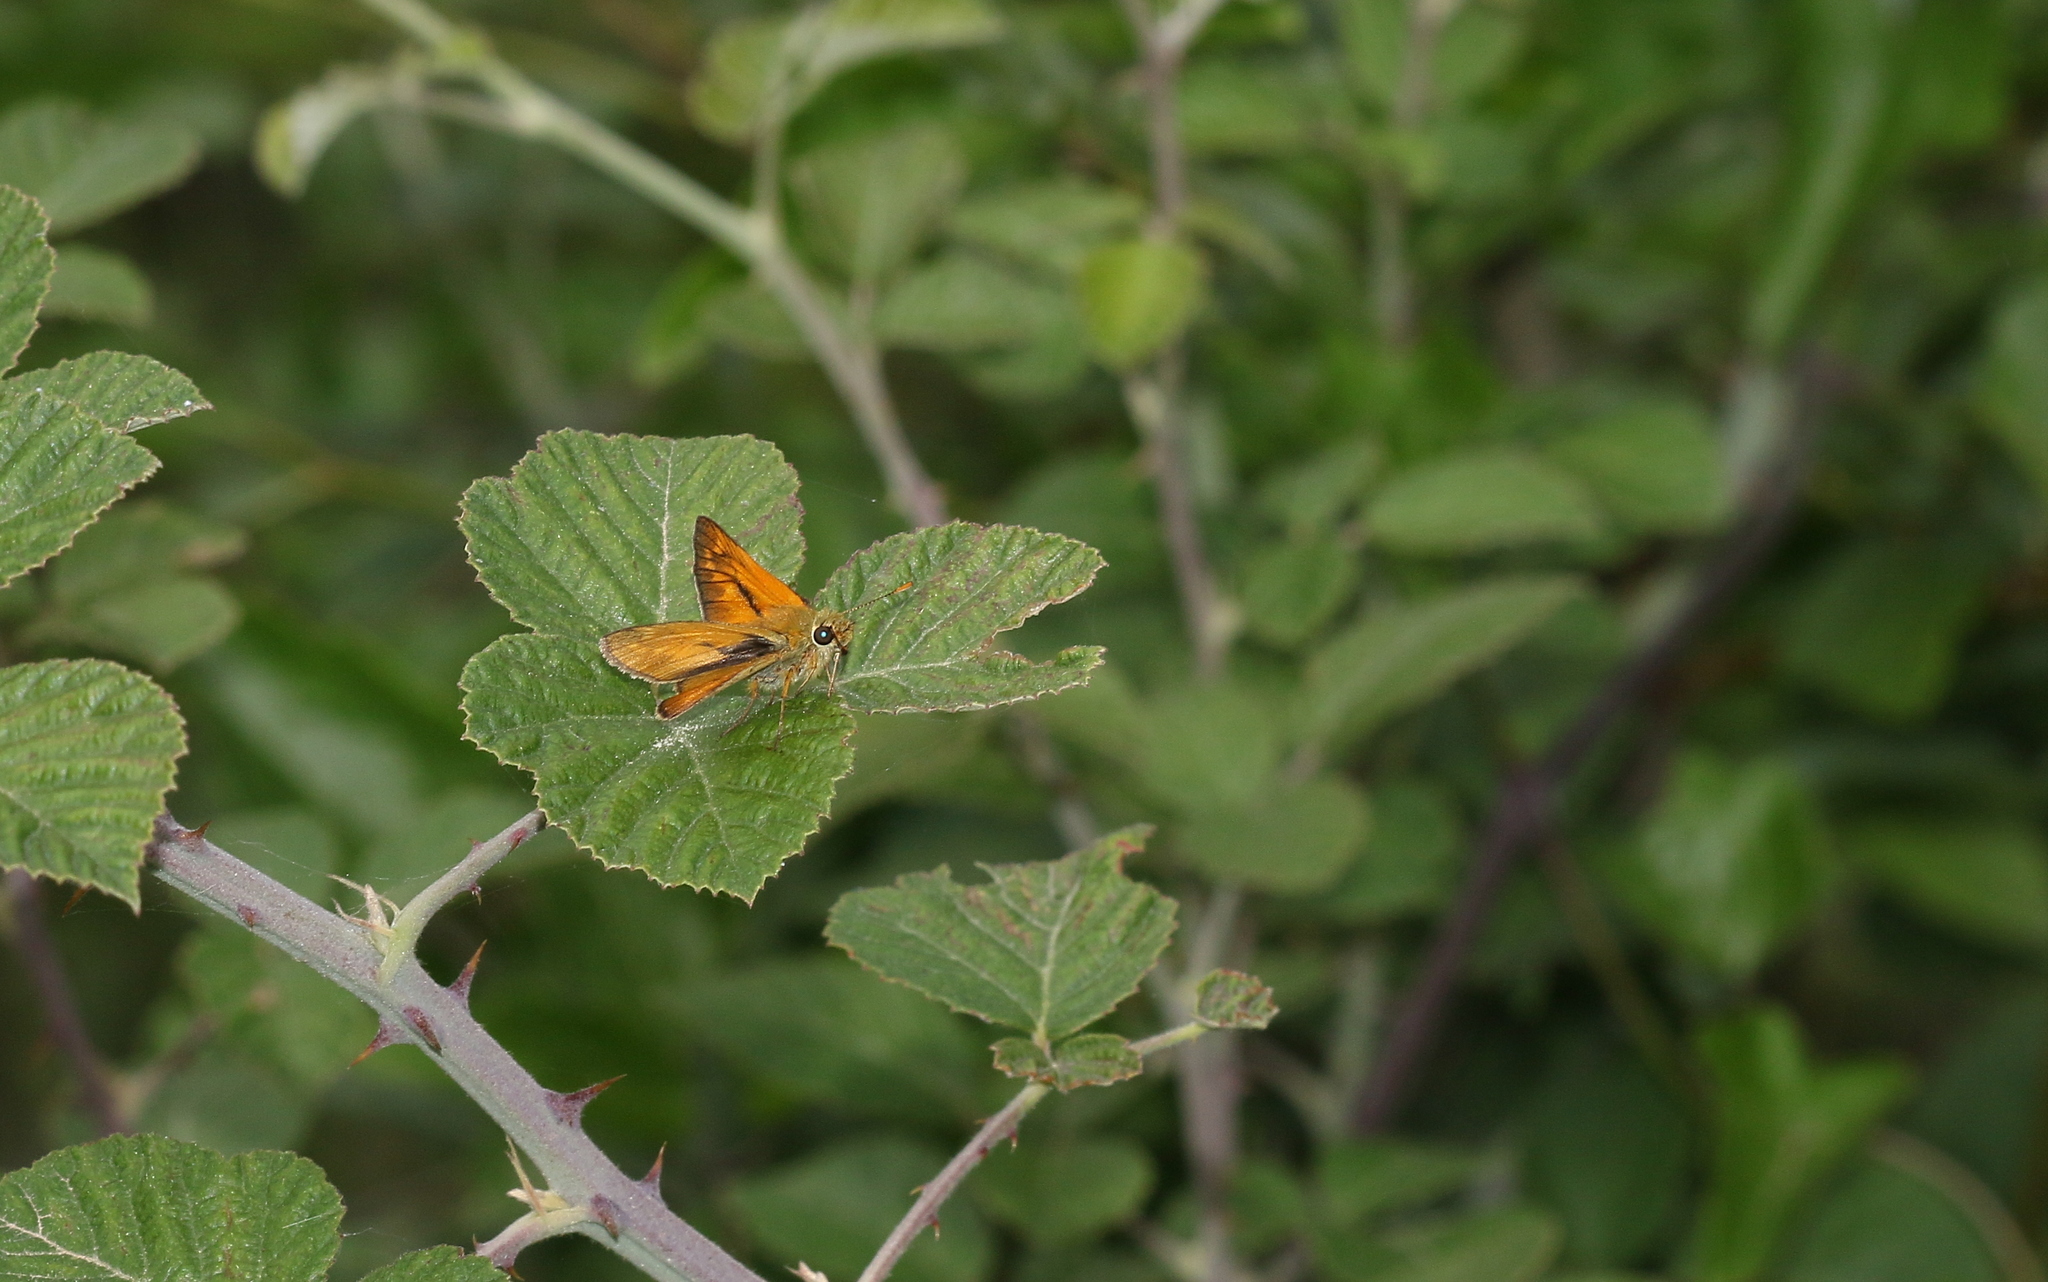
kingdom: Animalia
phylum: Arthropoda
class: Insecta
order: Lepidoptera
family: Hesperiidae
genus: Ochlodes
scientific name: Ochlodes venata
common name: Large skipper
